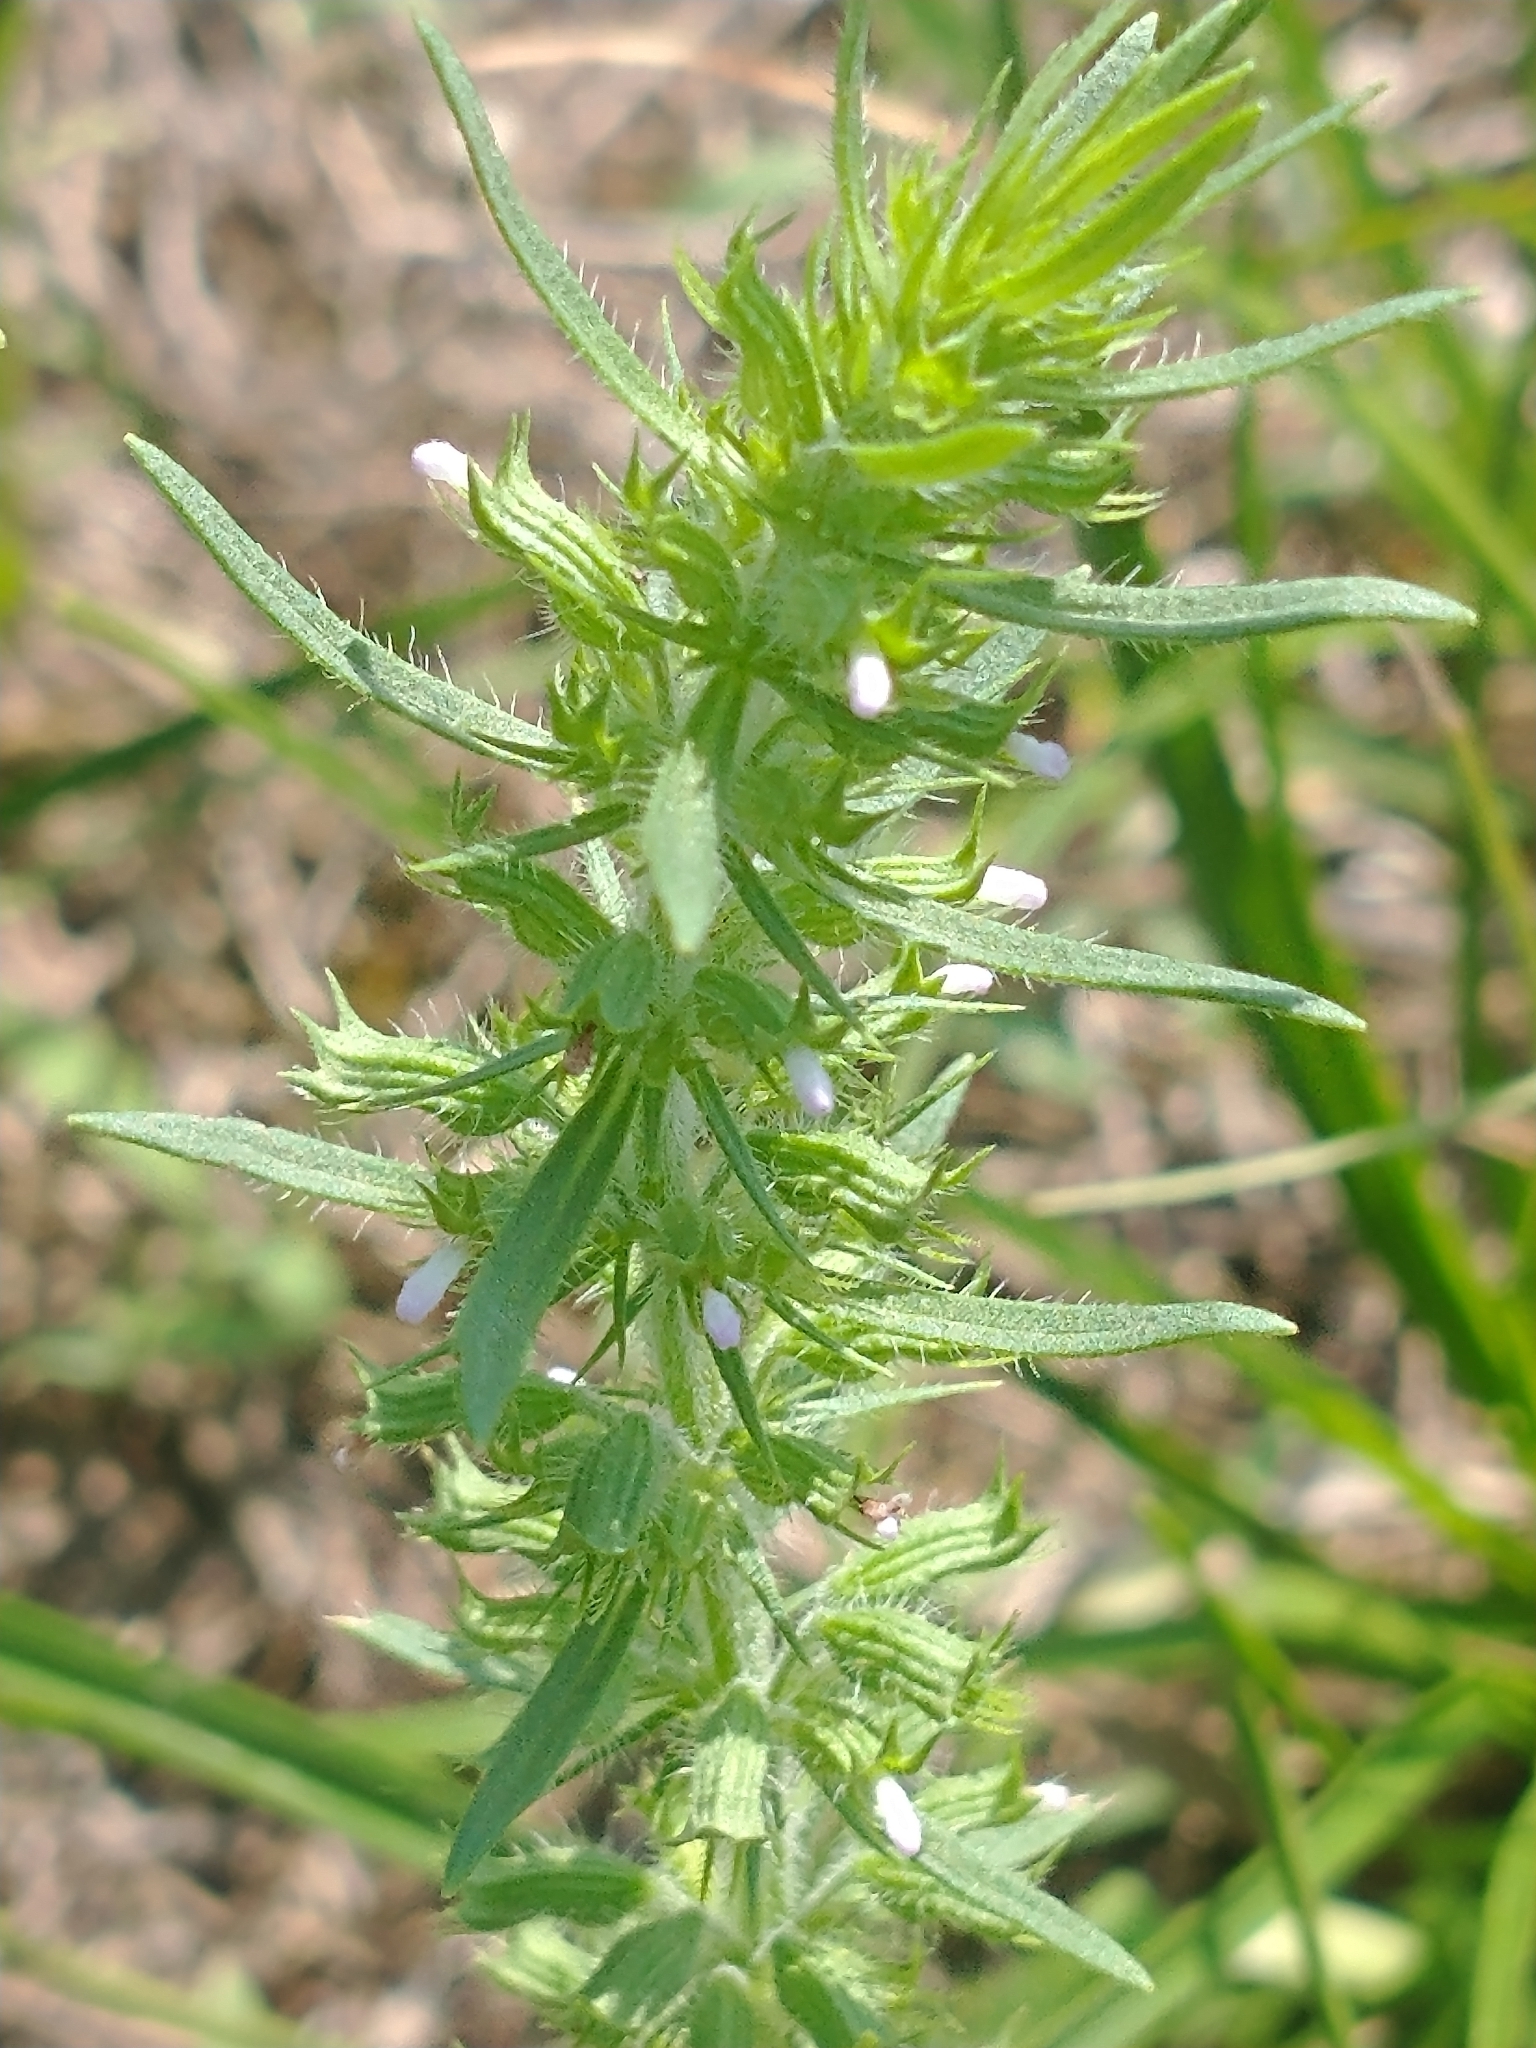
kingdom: Plantae
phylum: Tracheophyta
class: Magnoliopsida
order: Lamiales
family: Lamiaceae
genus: Hedeoma
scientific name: Hedeoma hispida
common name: Mock pennyroyal
